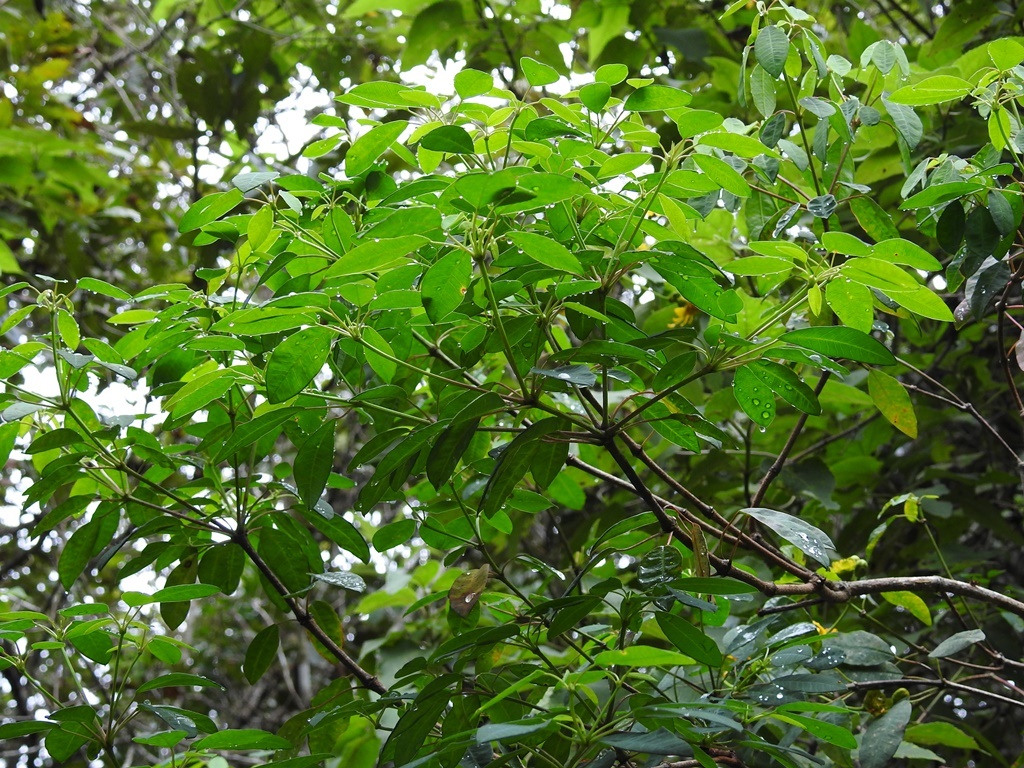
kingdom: Plantae
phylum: Tracheophyta
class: Magnoliopsida
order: Malpighiales
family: Euphorbiaceae
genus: Euphorbia
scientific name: Euphorbia leucocephala
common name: Pascuita
